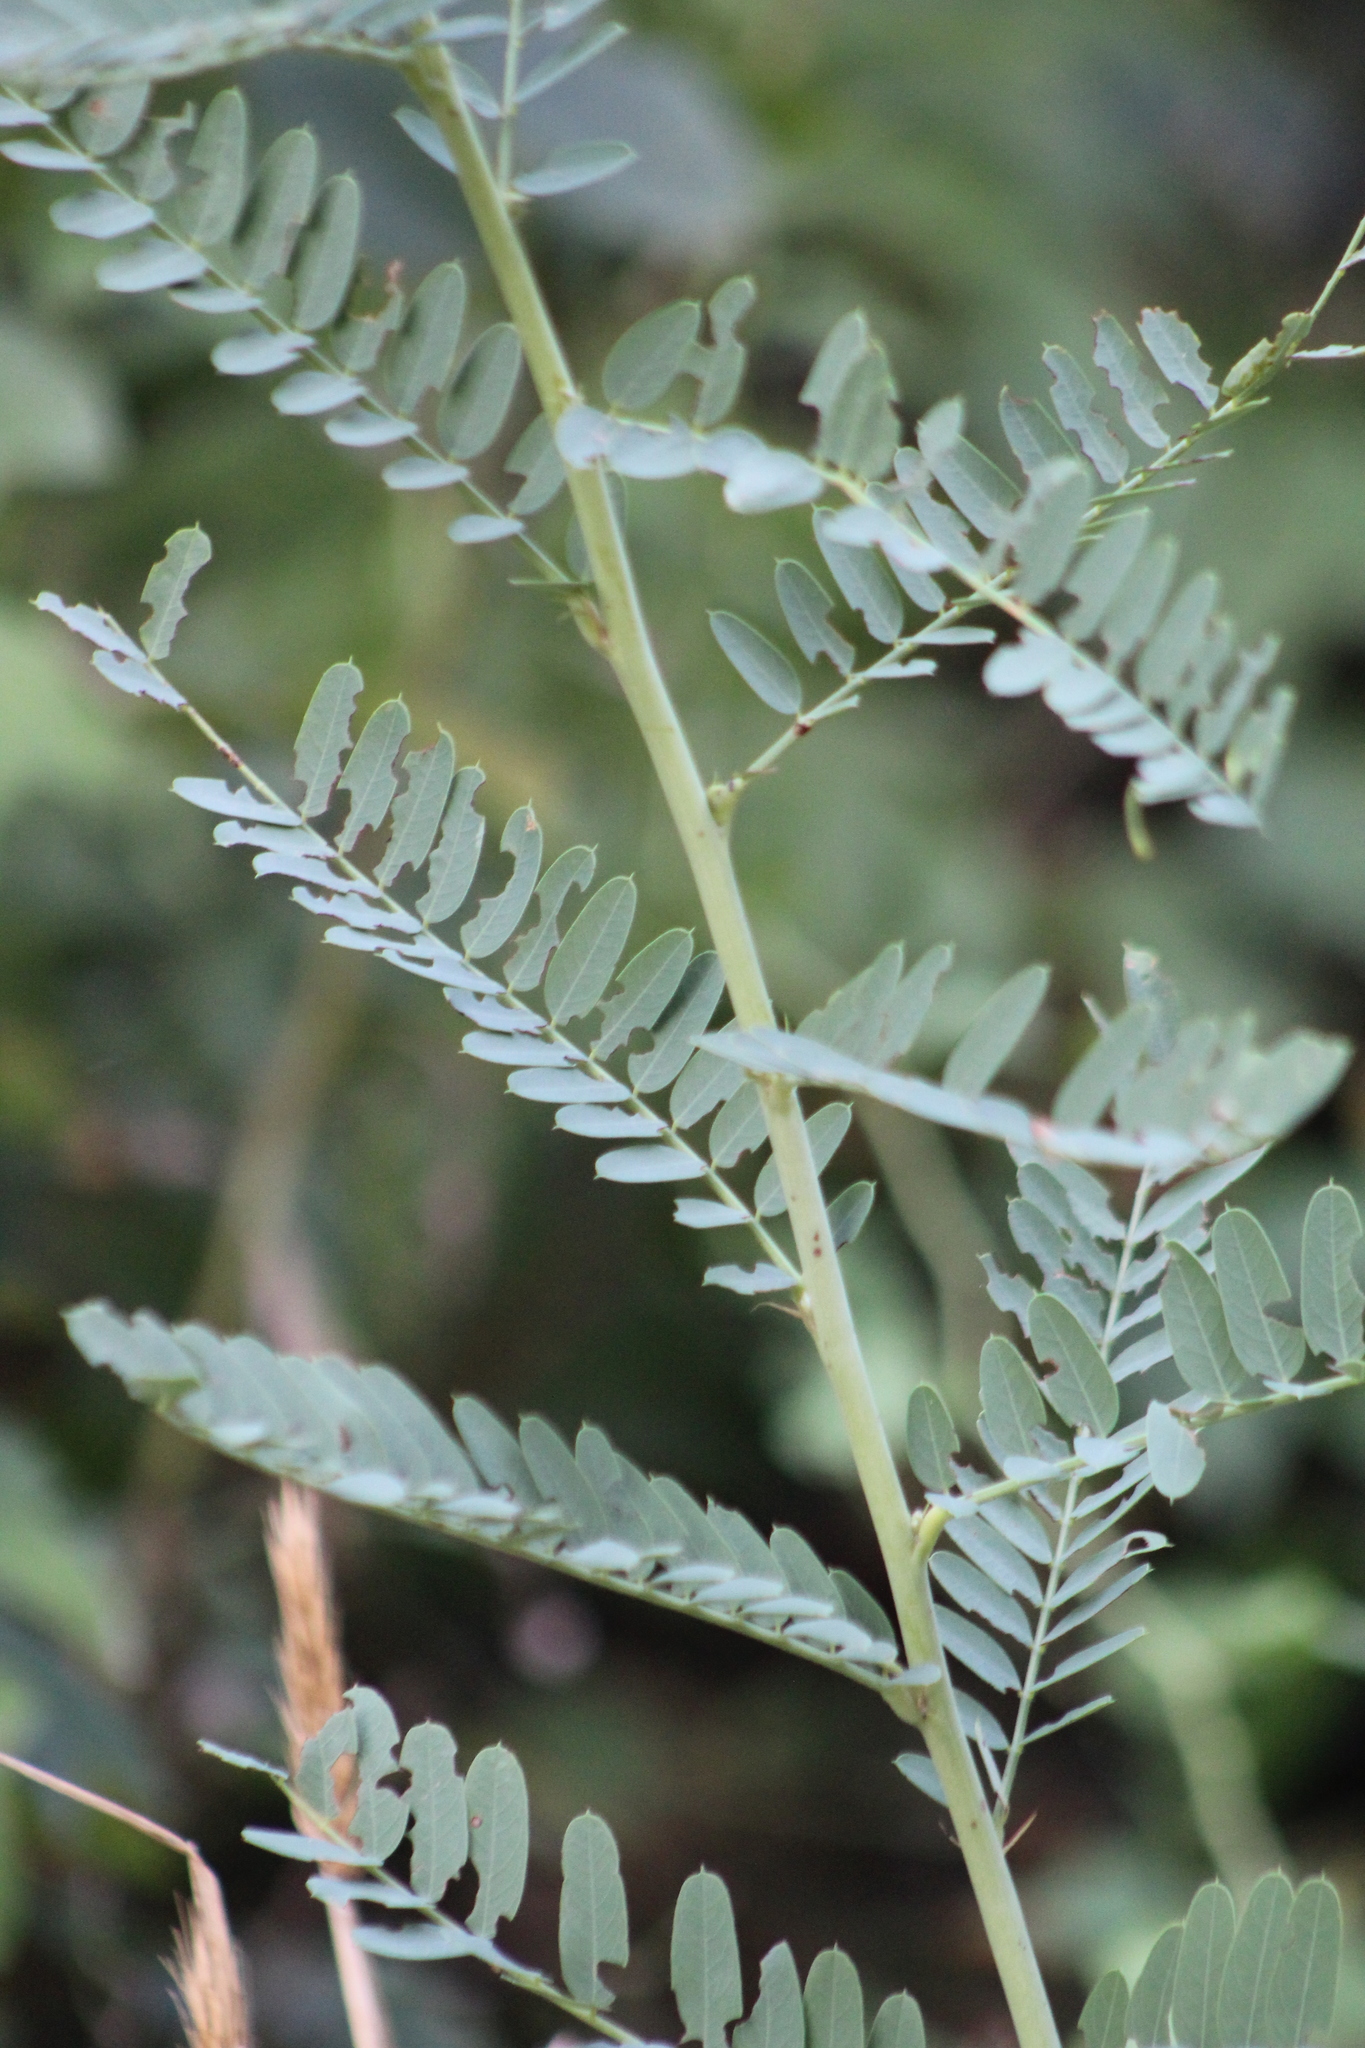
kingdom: Plantae
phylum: Tracheophyta
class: Magnoliopsida
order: Fabales
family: Fabaceae
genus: Sesbania
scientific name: Sesbania vesicaria
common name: Bagpod
